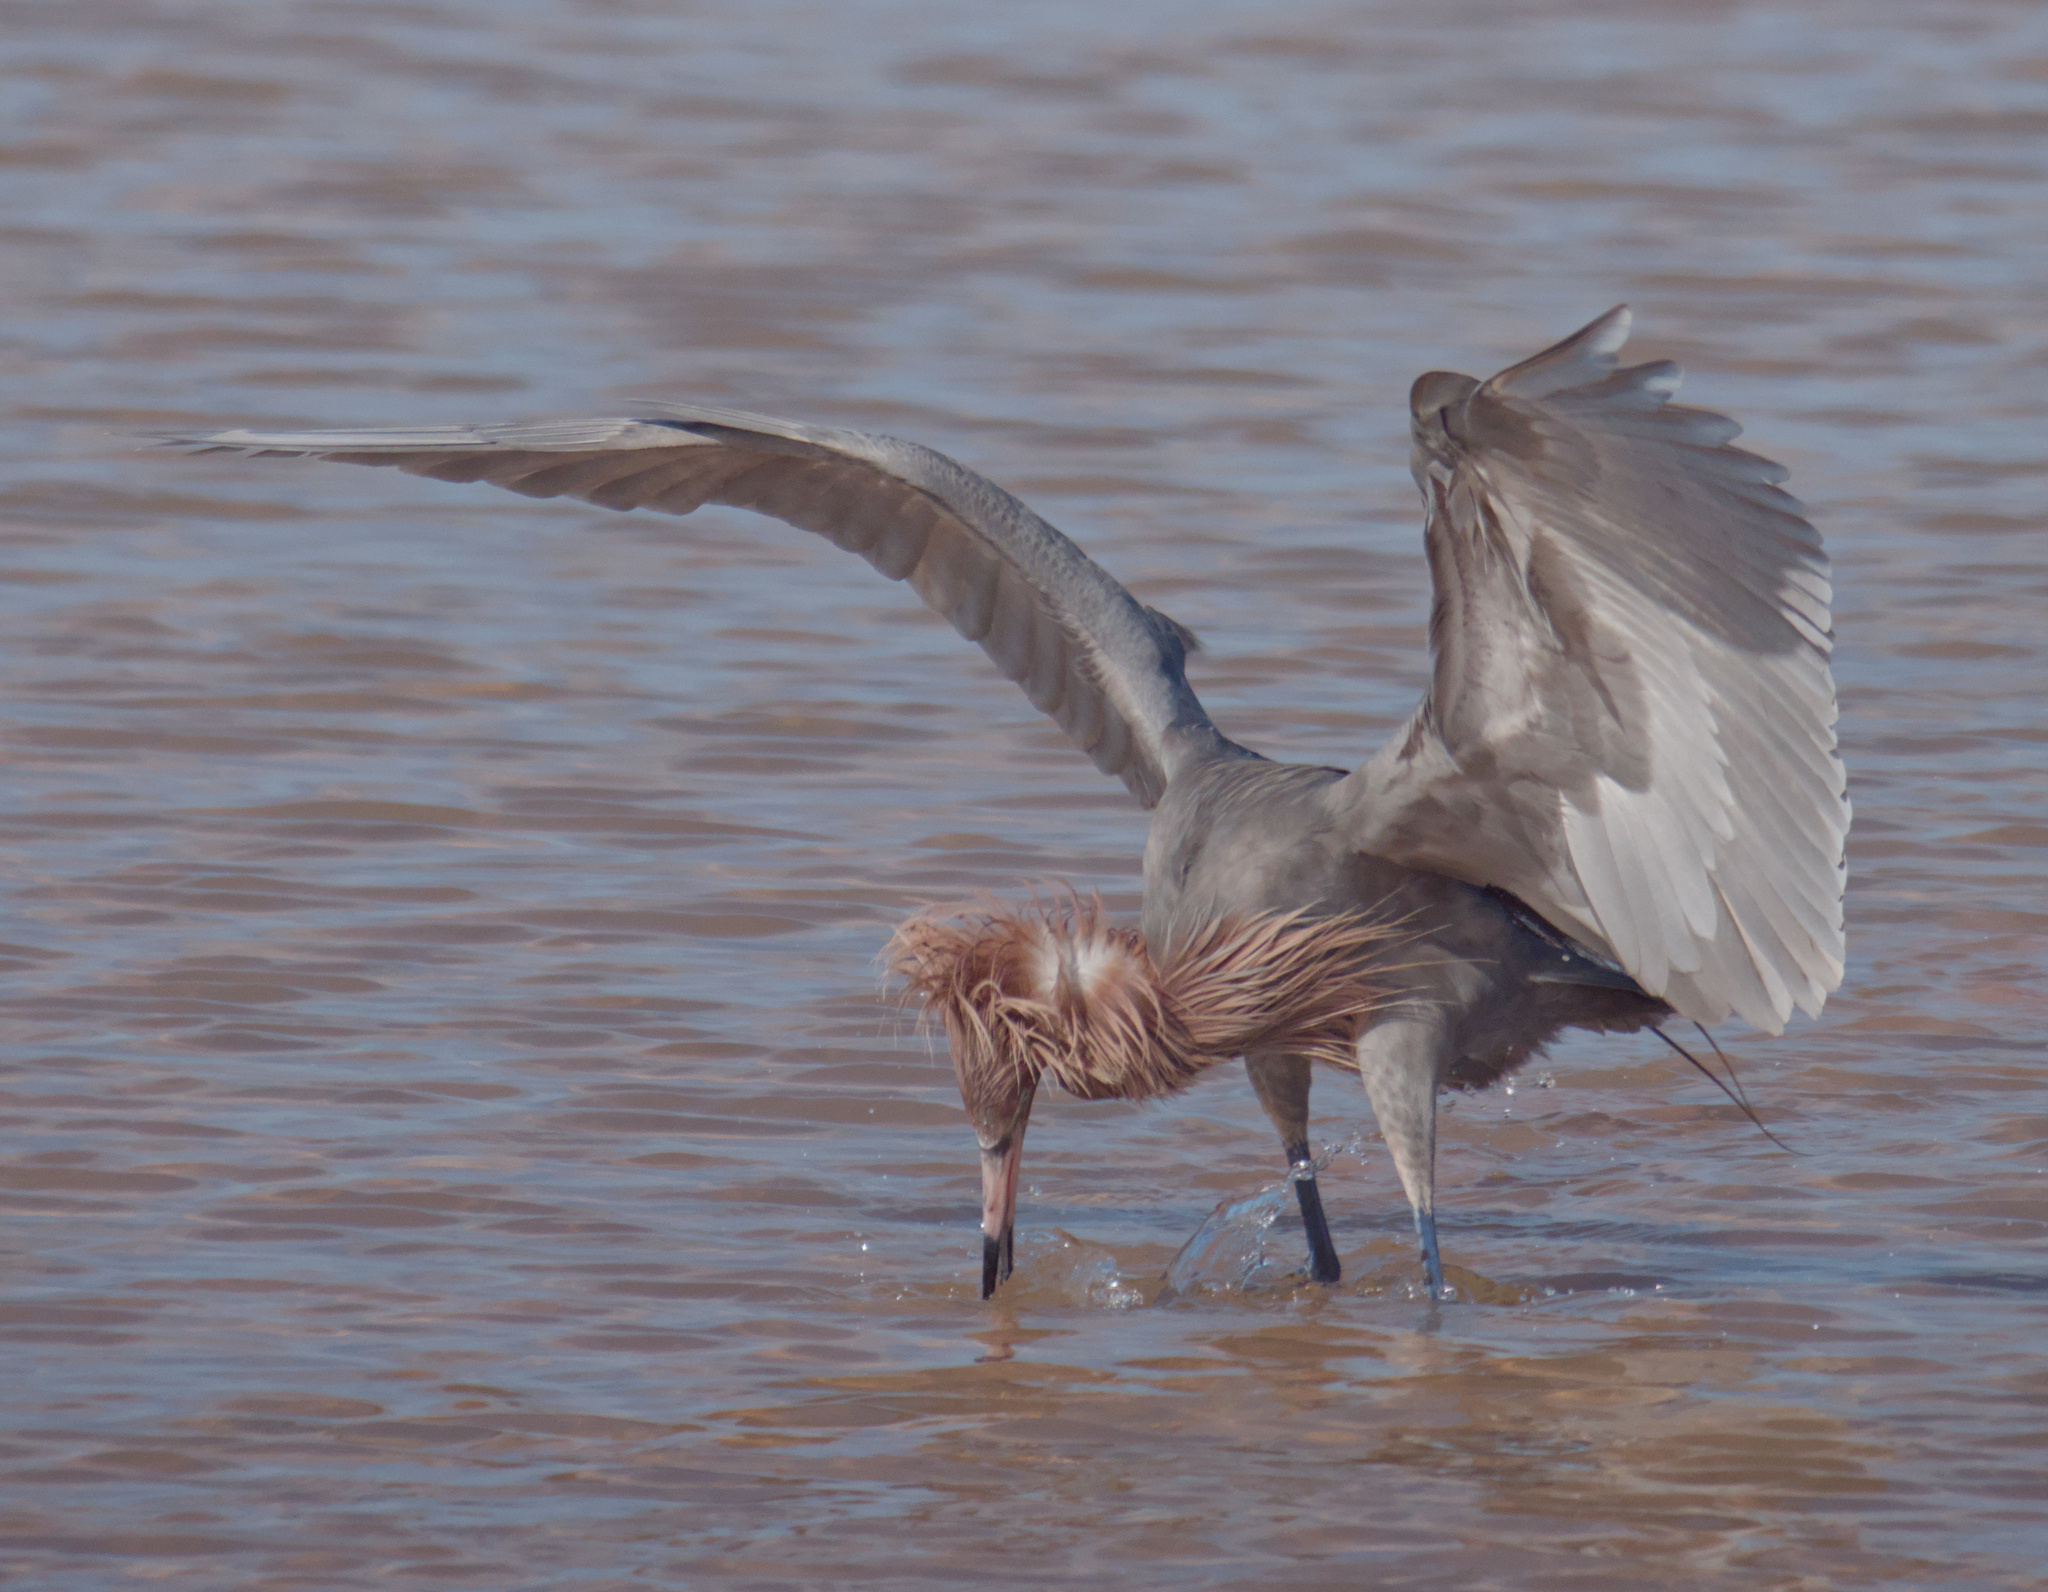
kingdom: Animalia
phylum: Chordata
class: Aves
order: Pelecaniformes
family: Ardeidae
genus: Egretta
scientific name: Egretta rufescens
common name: Reddish egret
